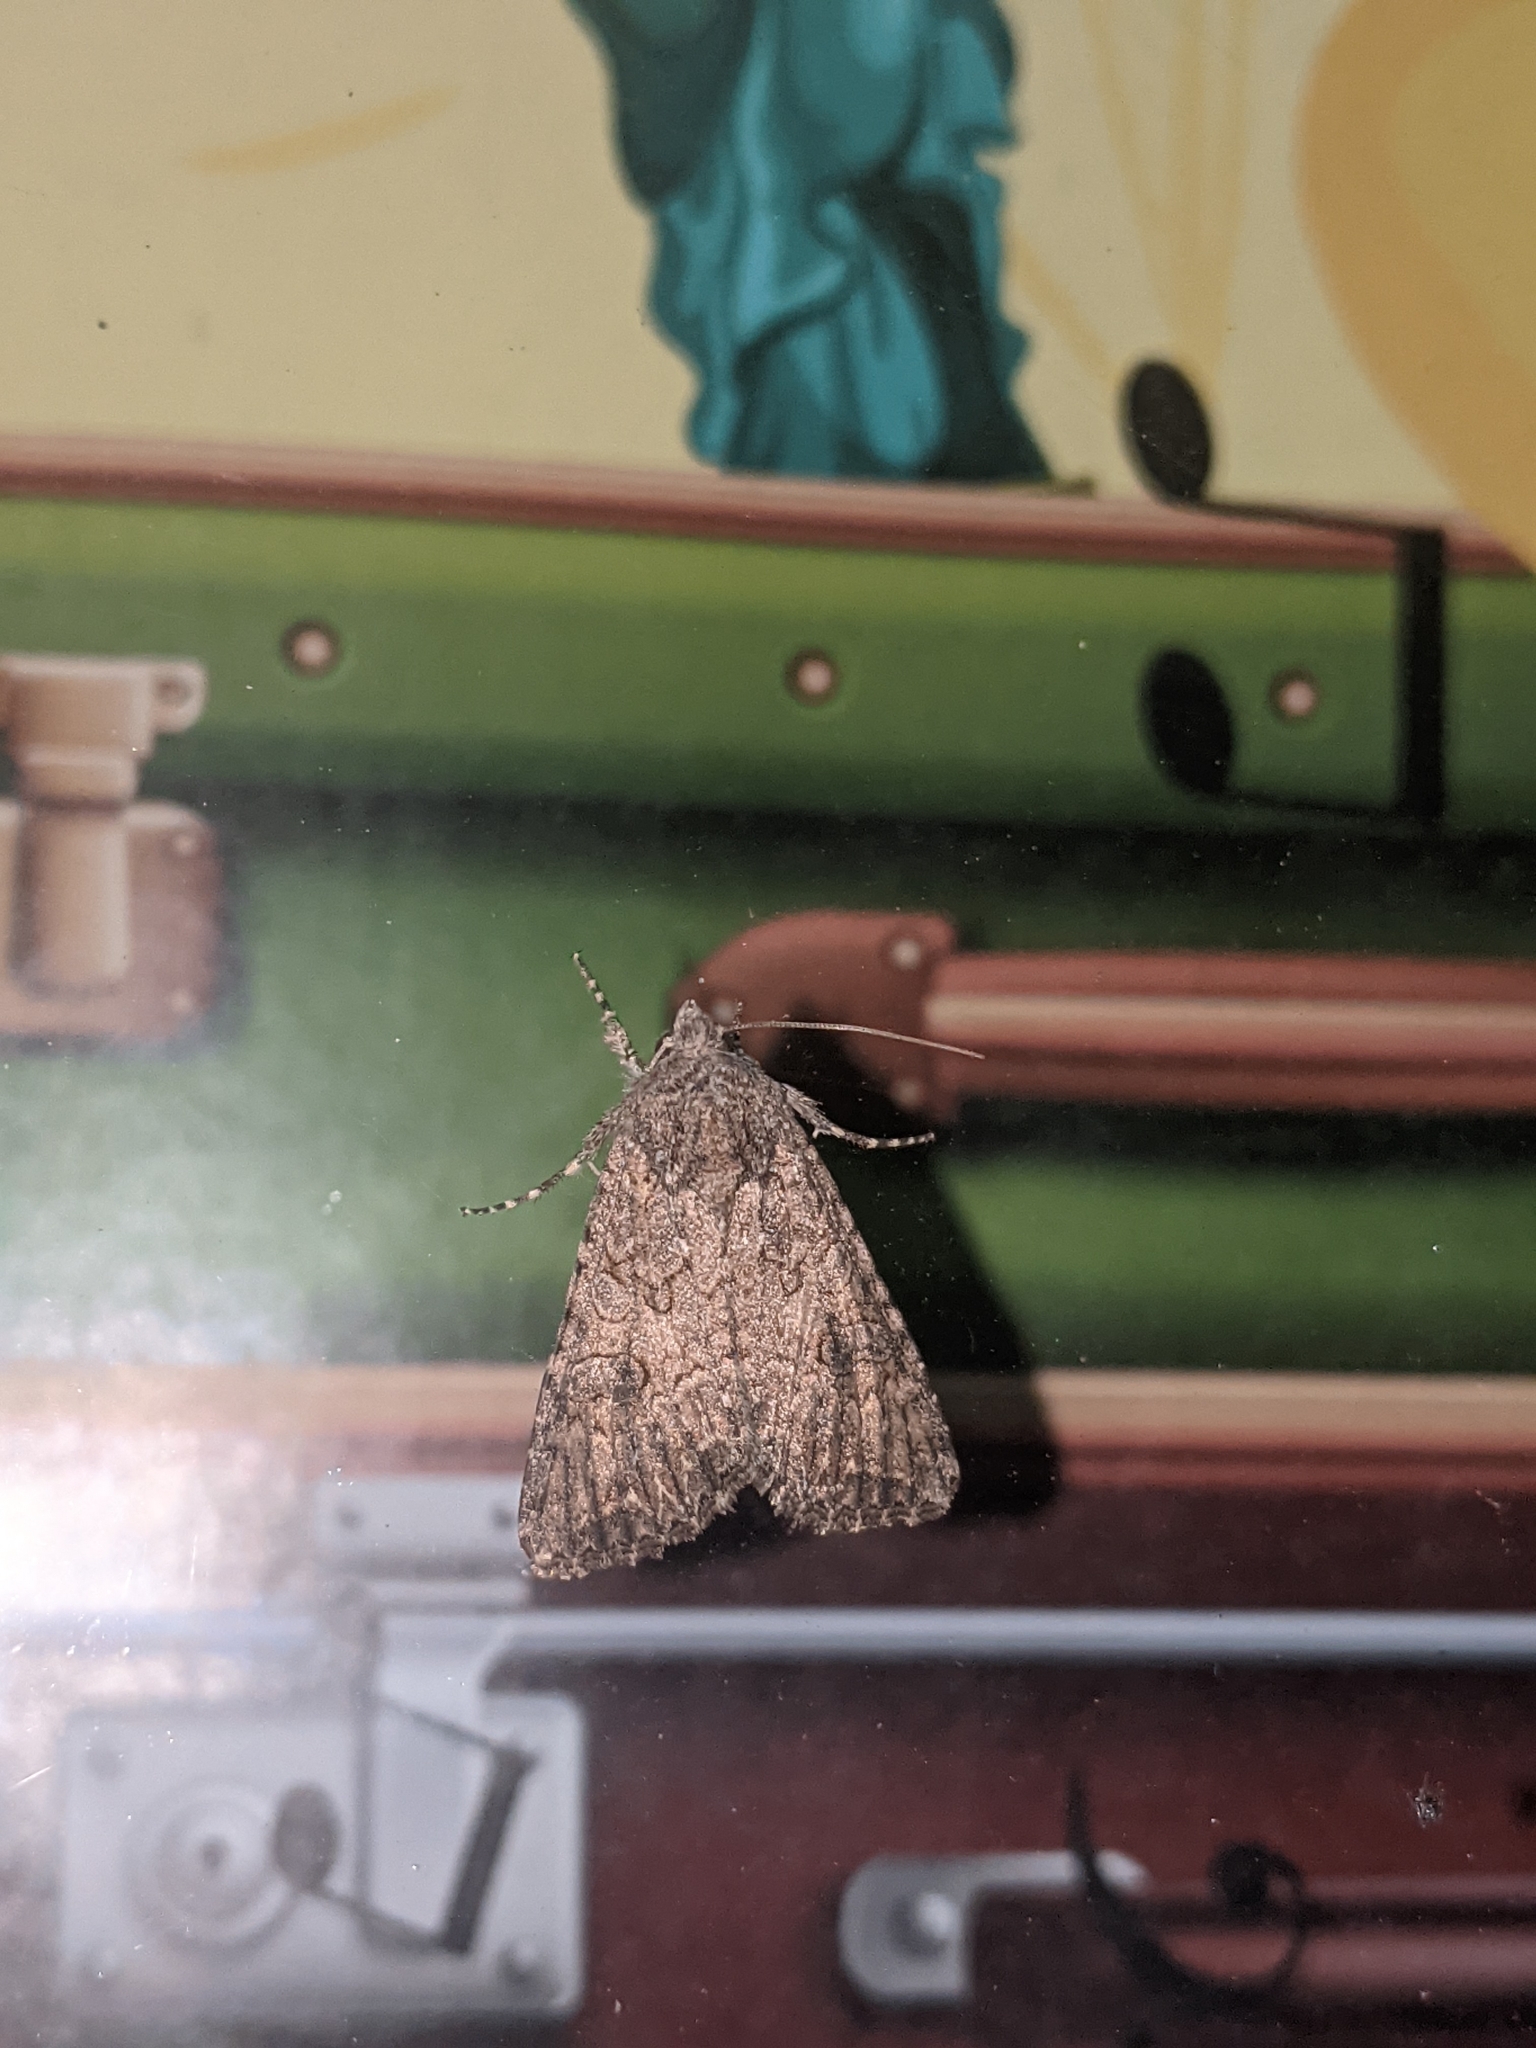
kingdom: Animalia
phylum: Arthropoda
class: Insecta
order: Lepidoptera
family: Noctuidae
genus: Anarta
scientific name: Anarta trifolii
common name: Clover cutworm moth
